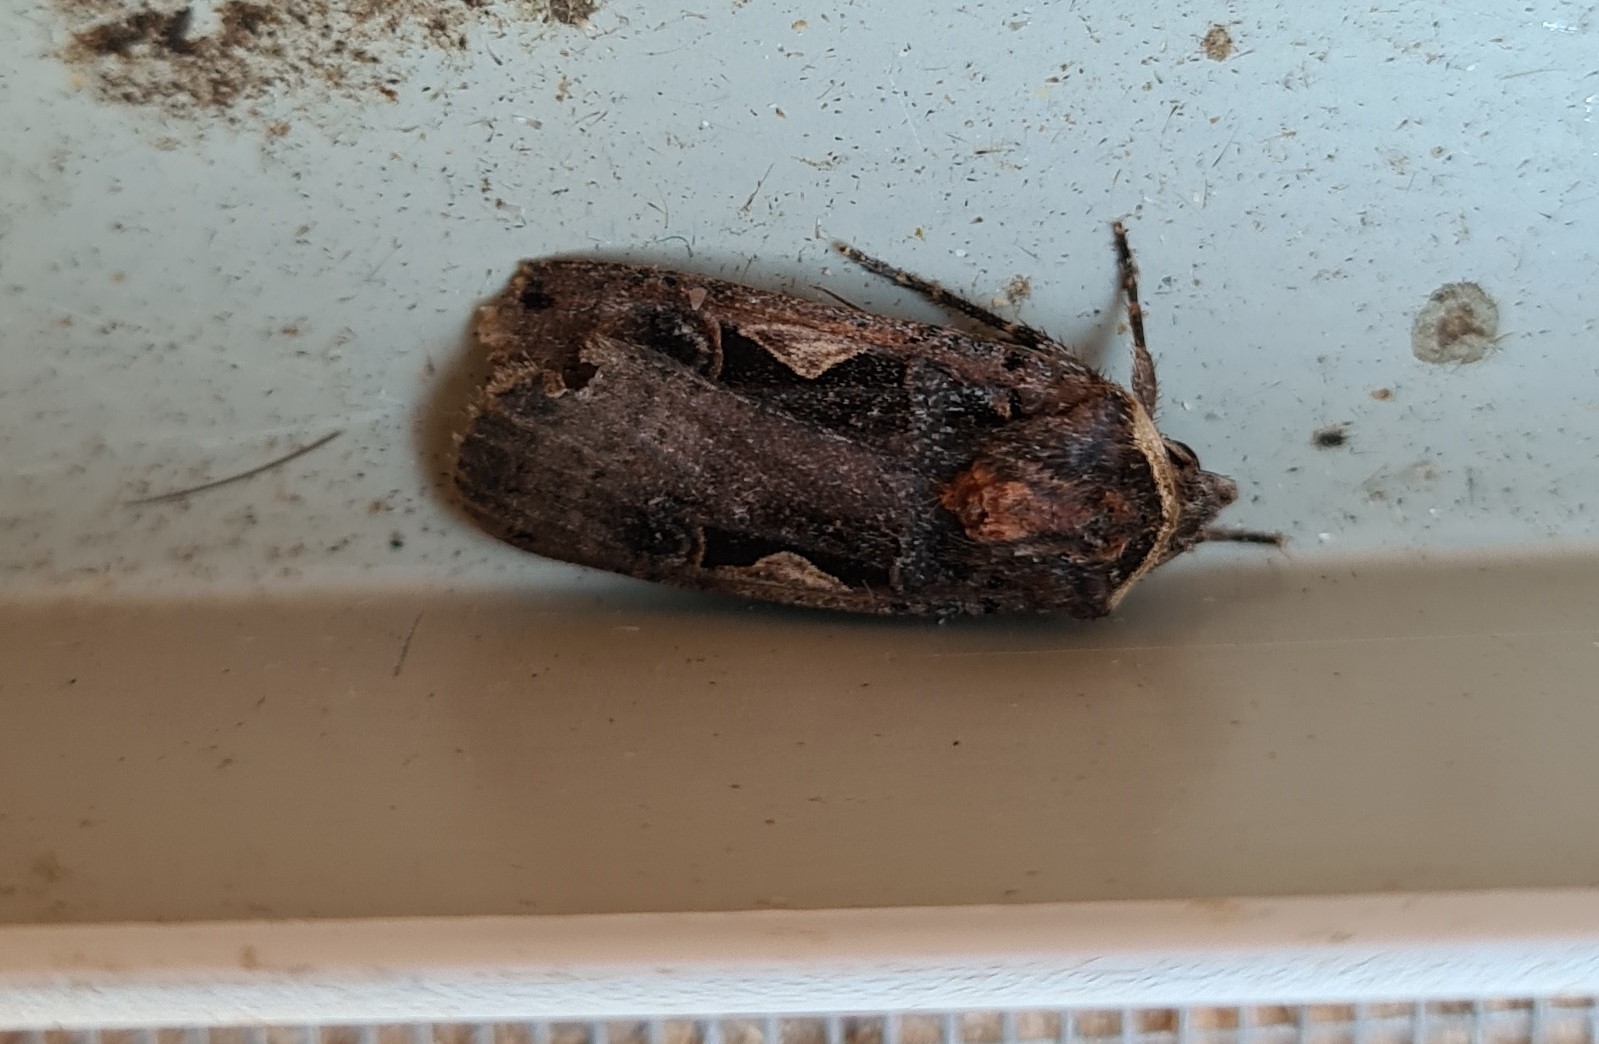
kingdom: Animalia
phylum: Arthropoda
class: Insecta
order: Lepidoptera
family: Noctuidae
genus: Xestia
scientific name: Xestia c-nigrum
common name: Setaceous hebrew character
